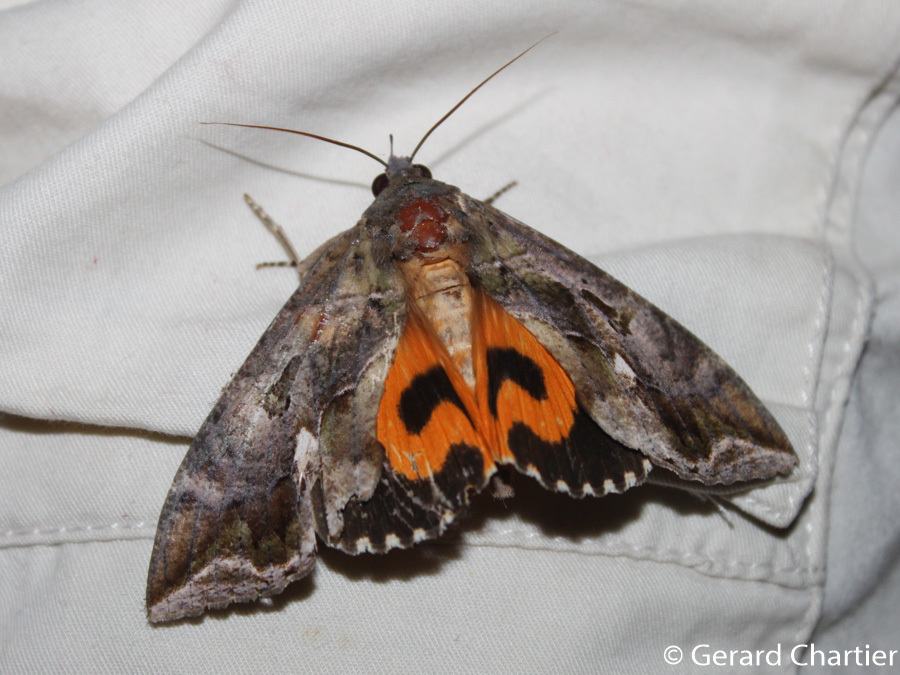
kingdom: Animalia
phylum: Arthropoda
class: Insecta
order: Lepidoptera
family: Erebidae
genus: Eudocima
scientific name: Eudocima phalonia
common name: Wasp
